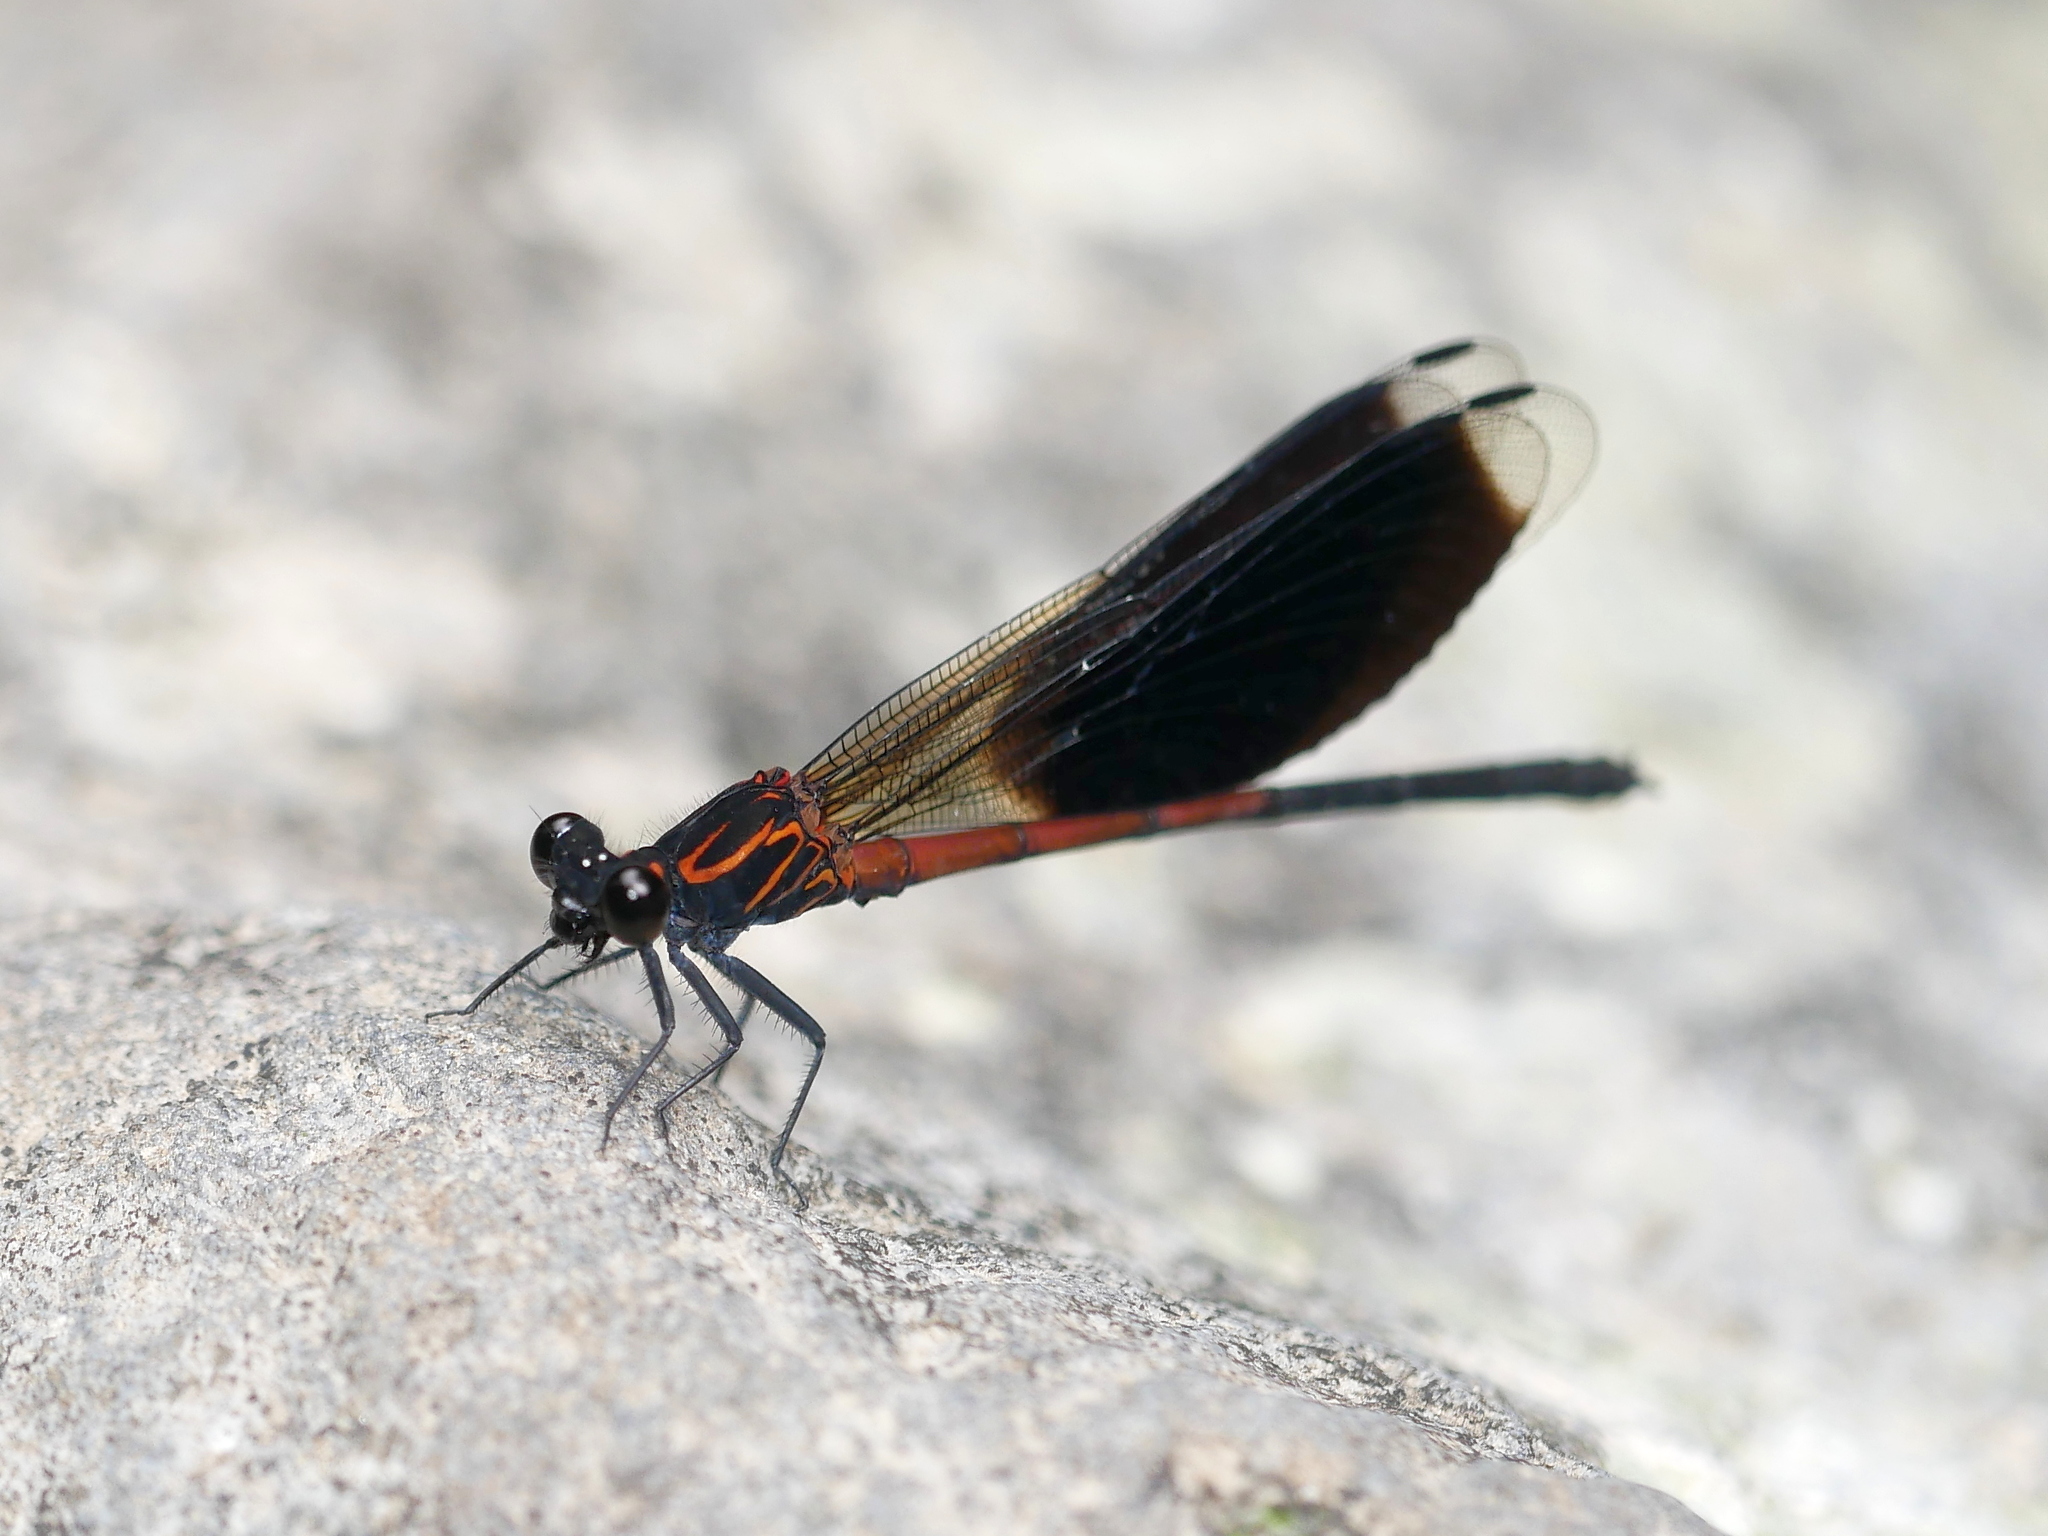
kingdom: Animalia
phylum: Arthropoda
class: Insecta
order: Odonata
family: Euphaeidae
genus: Euphaea
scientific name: Euphaea formosa
